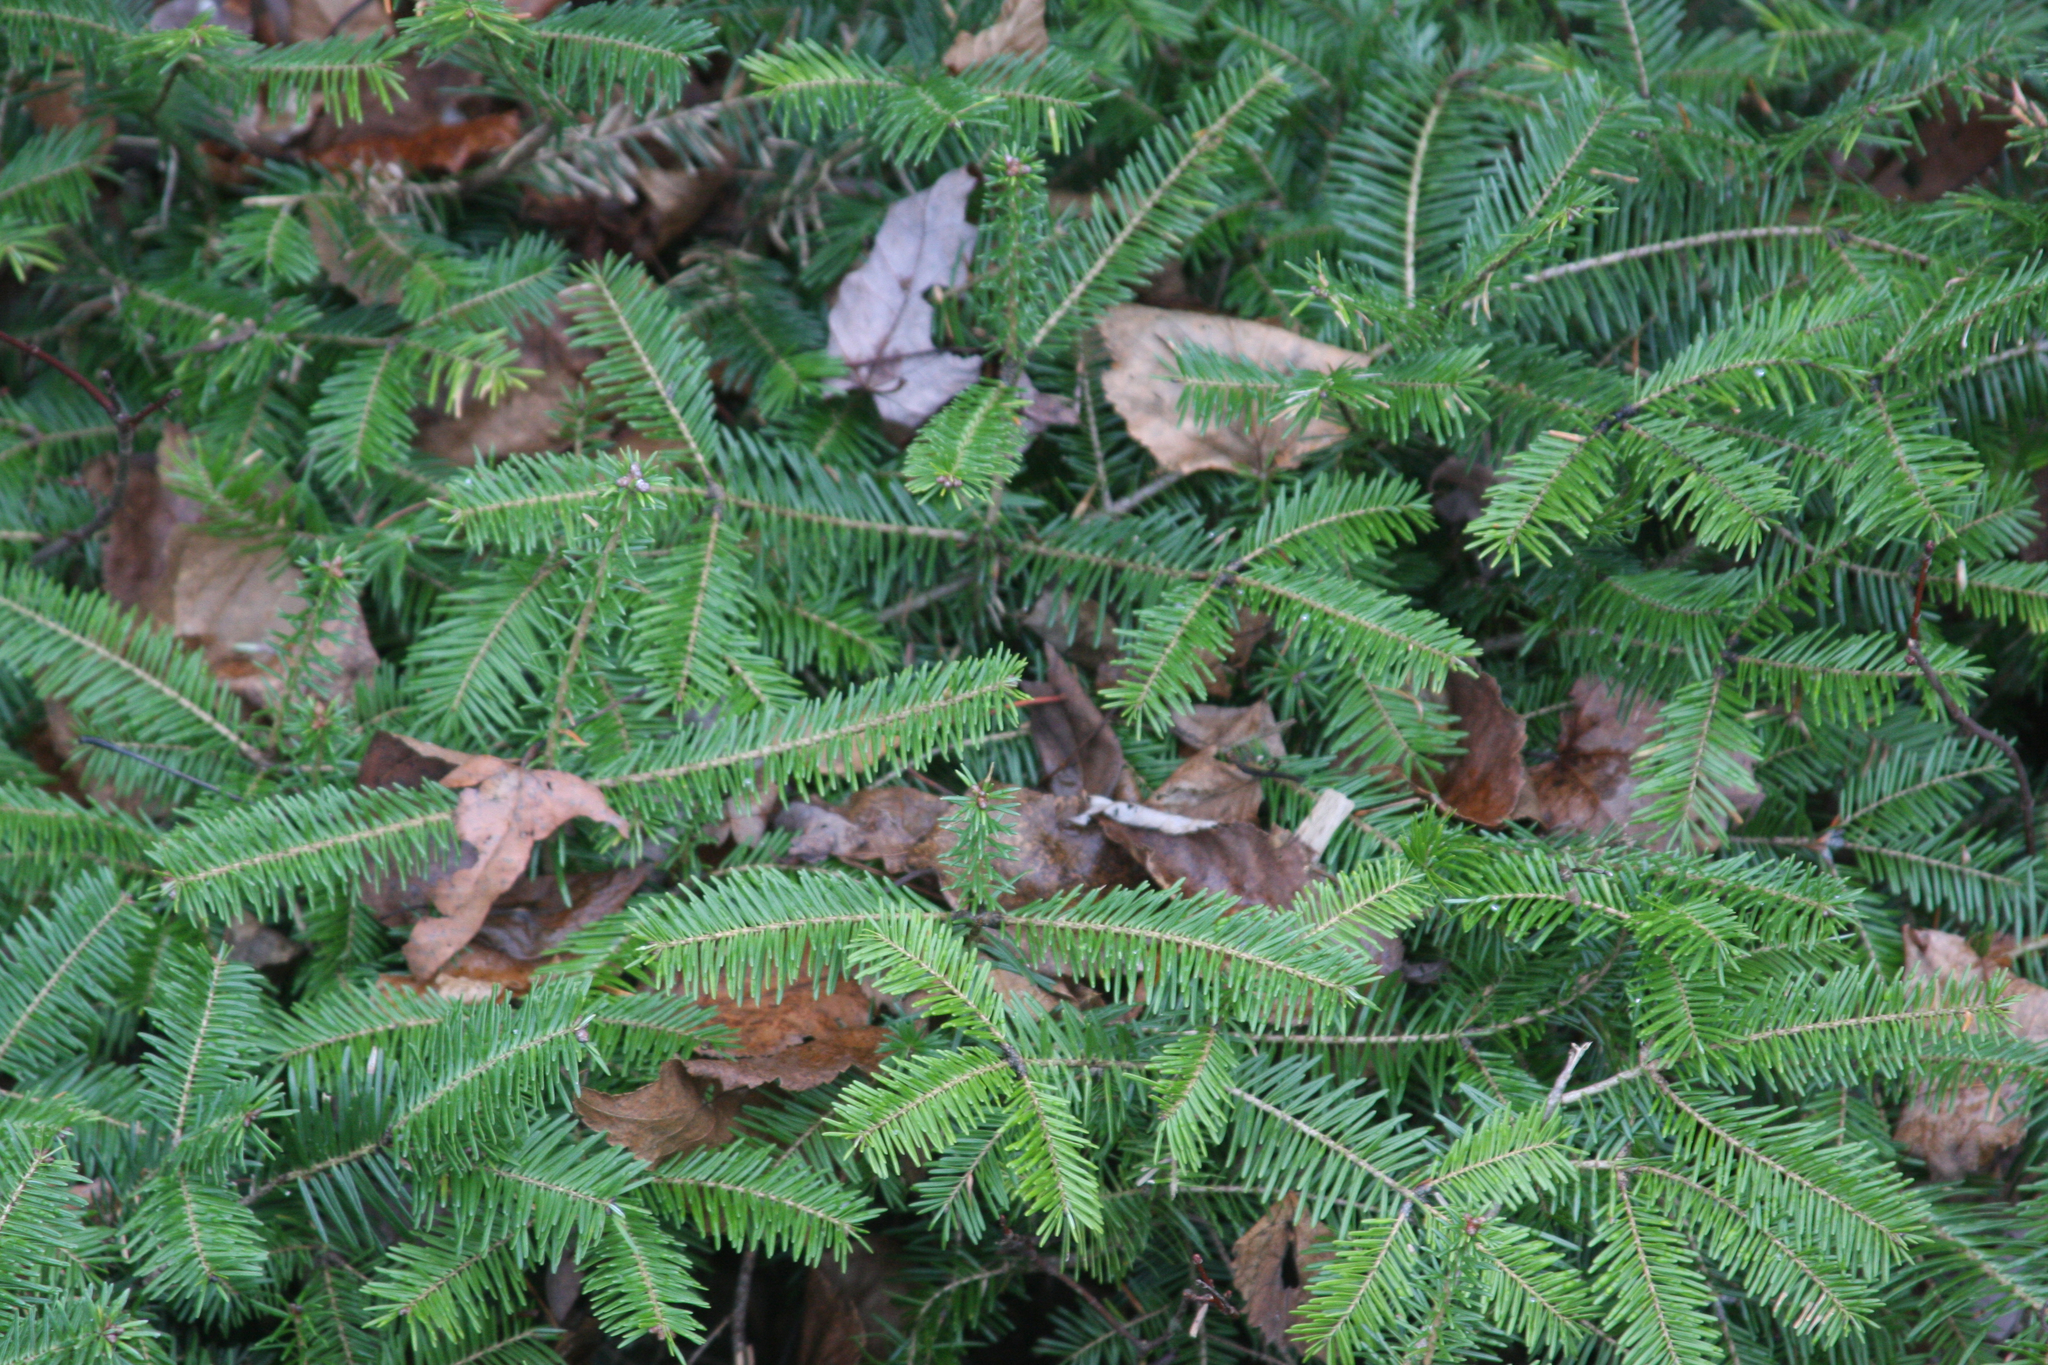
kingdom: Plantae
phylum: Tracheophyta
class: Pinopsida
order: Pinales
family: Pinaceae
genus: Abies
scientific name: Abies balsamea
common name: Balsam fir
